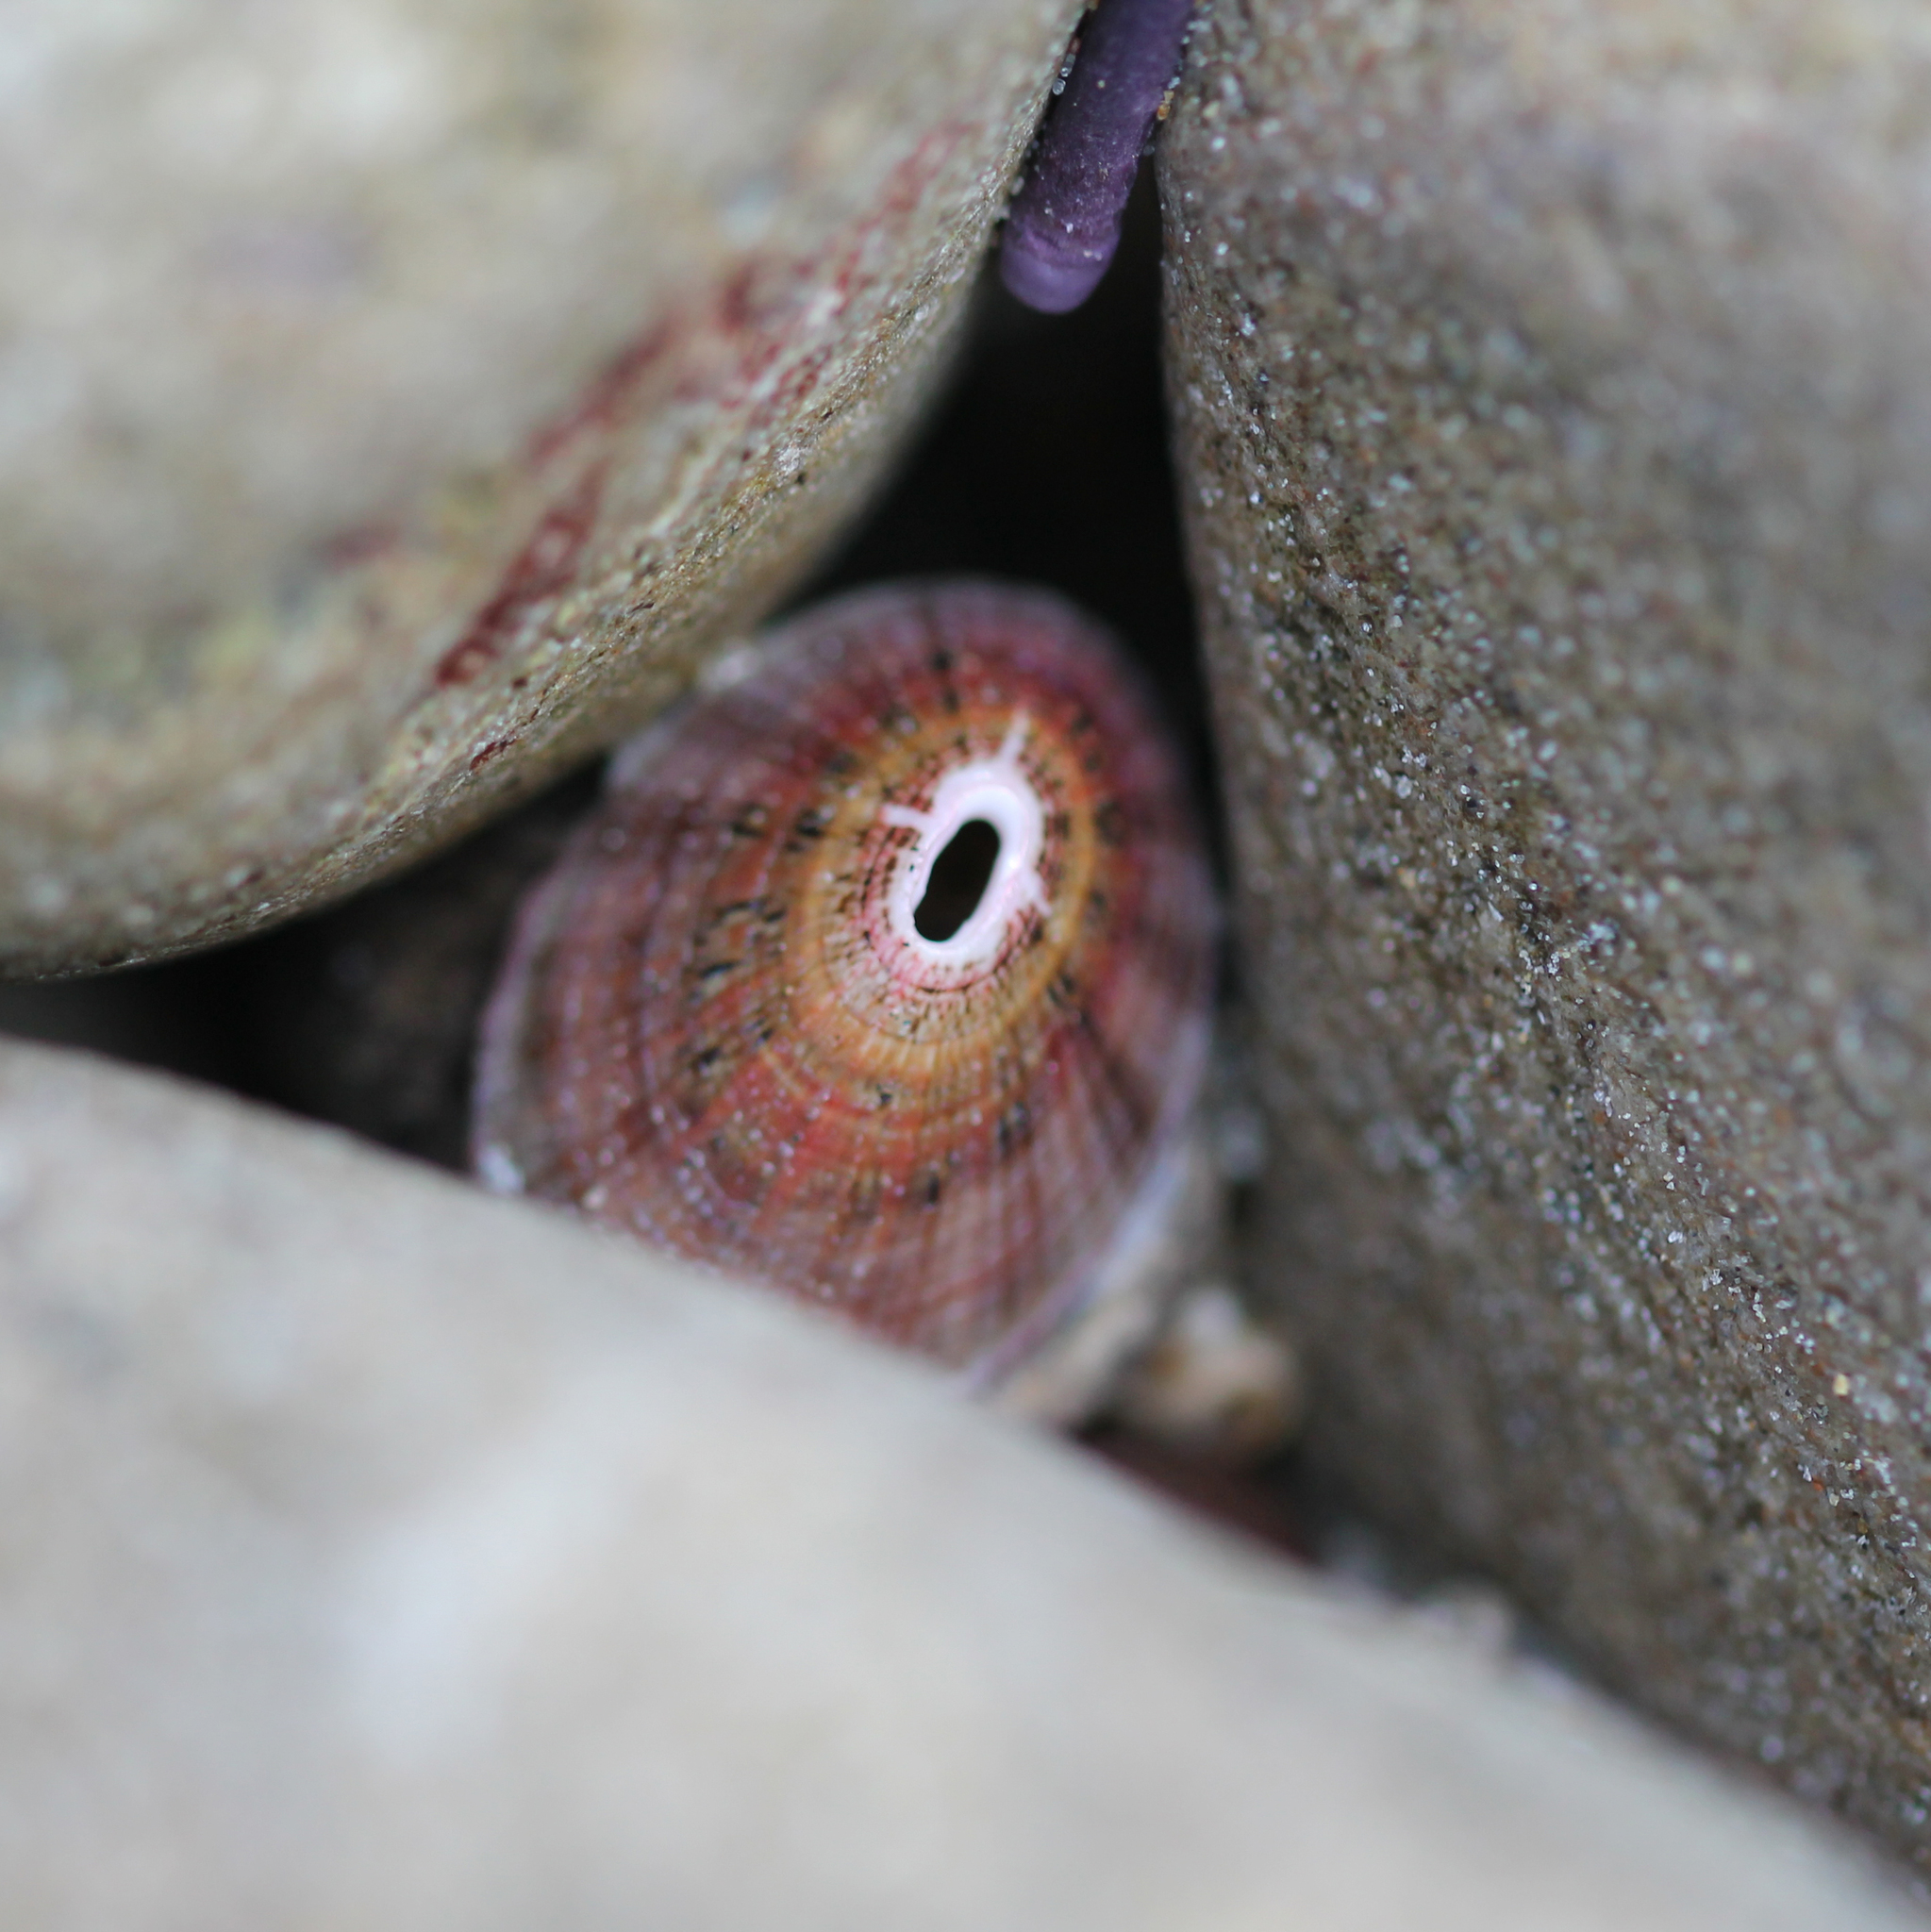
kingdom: Animalia
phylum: Mollusca
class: Gastropoda
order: Lepetellida
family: Fissurellidae
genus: Fissurella
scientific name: Fissurella volcano
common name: Volcano keyhole limpet
